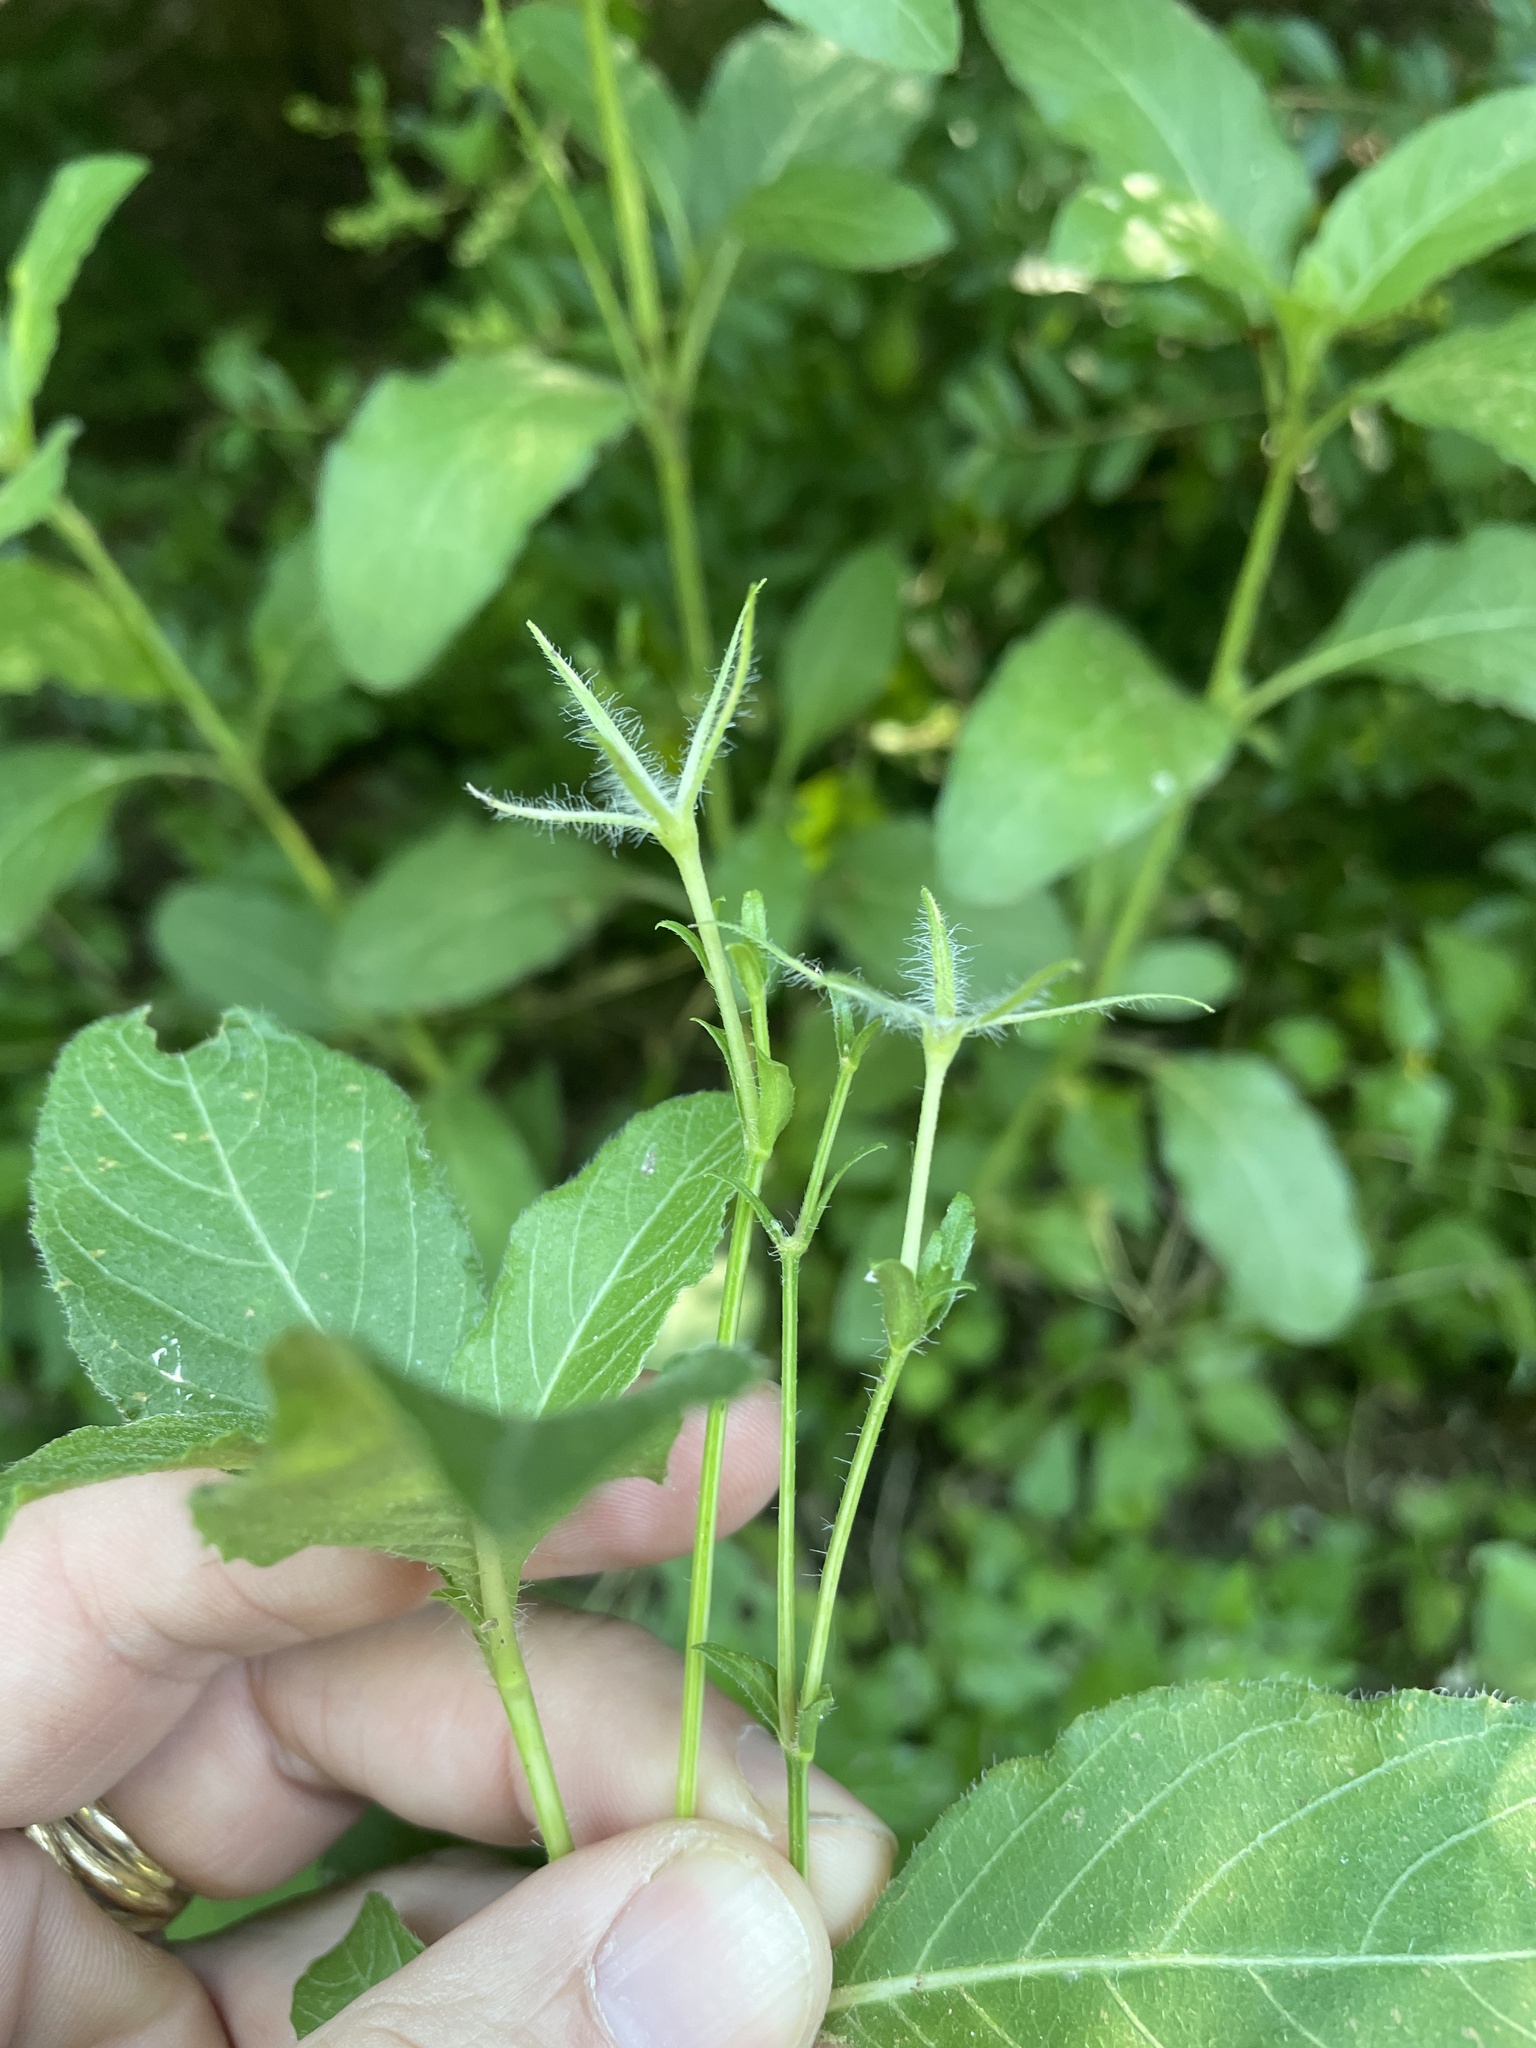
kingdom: Plantae
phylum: Tracheophyta
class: Magnoliopsida
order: Lamiales
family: Acanthaceae
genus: Ruellia
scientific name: Ruellia ciliatiflora
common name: Hairyflower wild petunia
